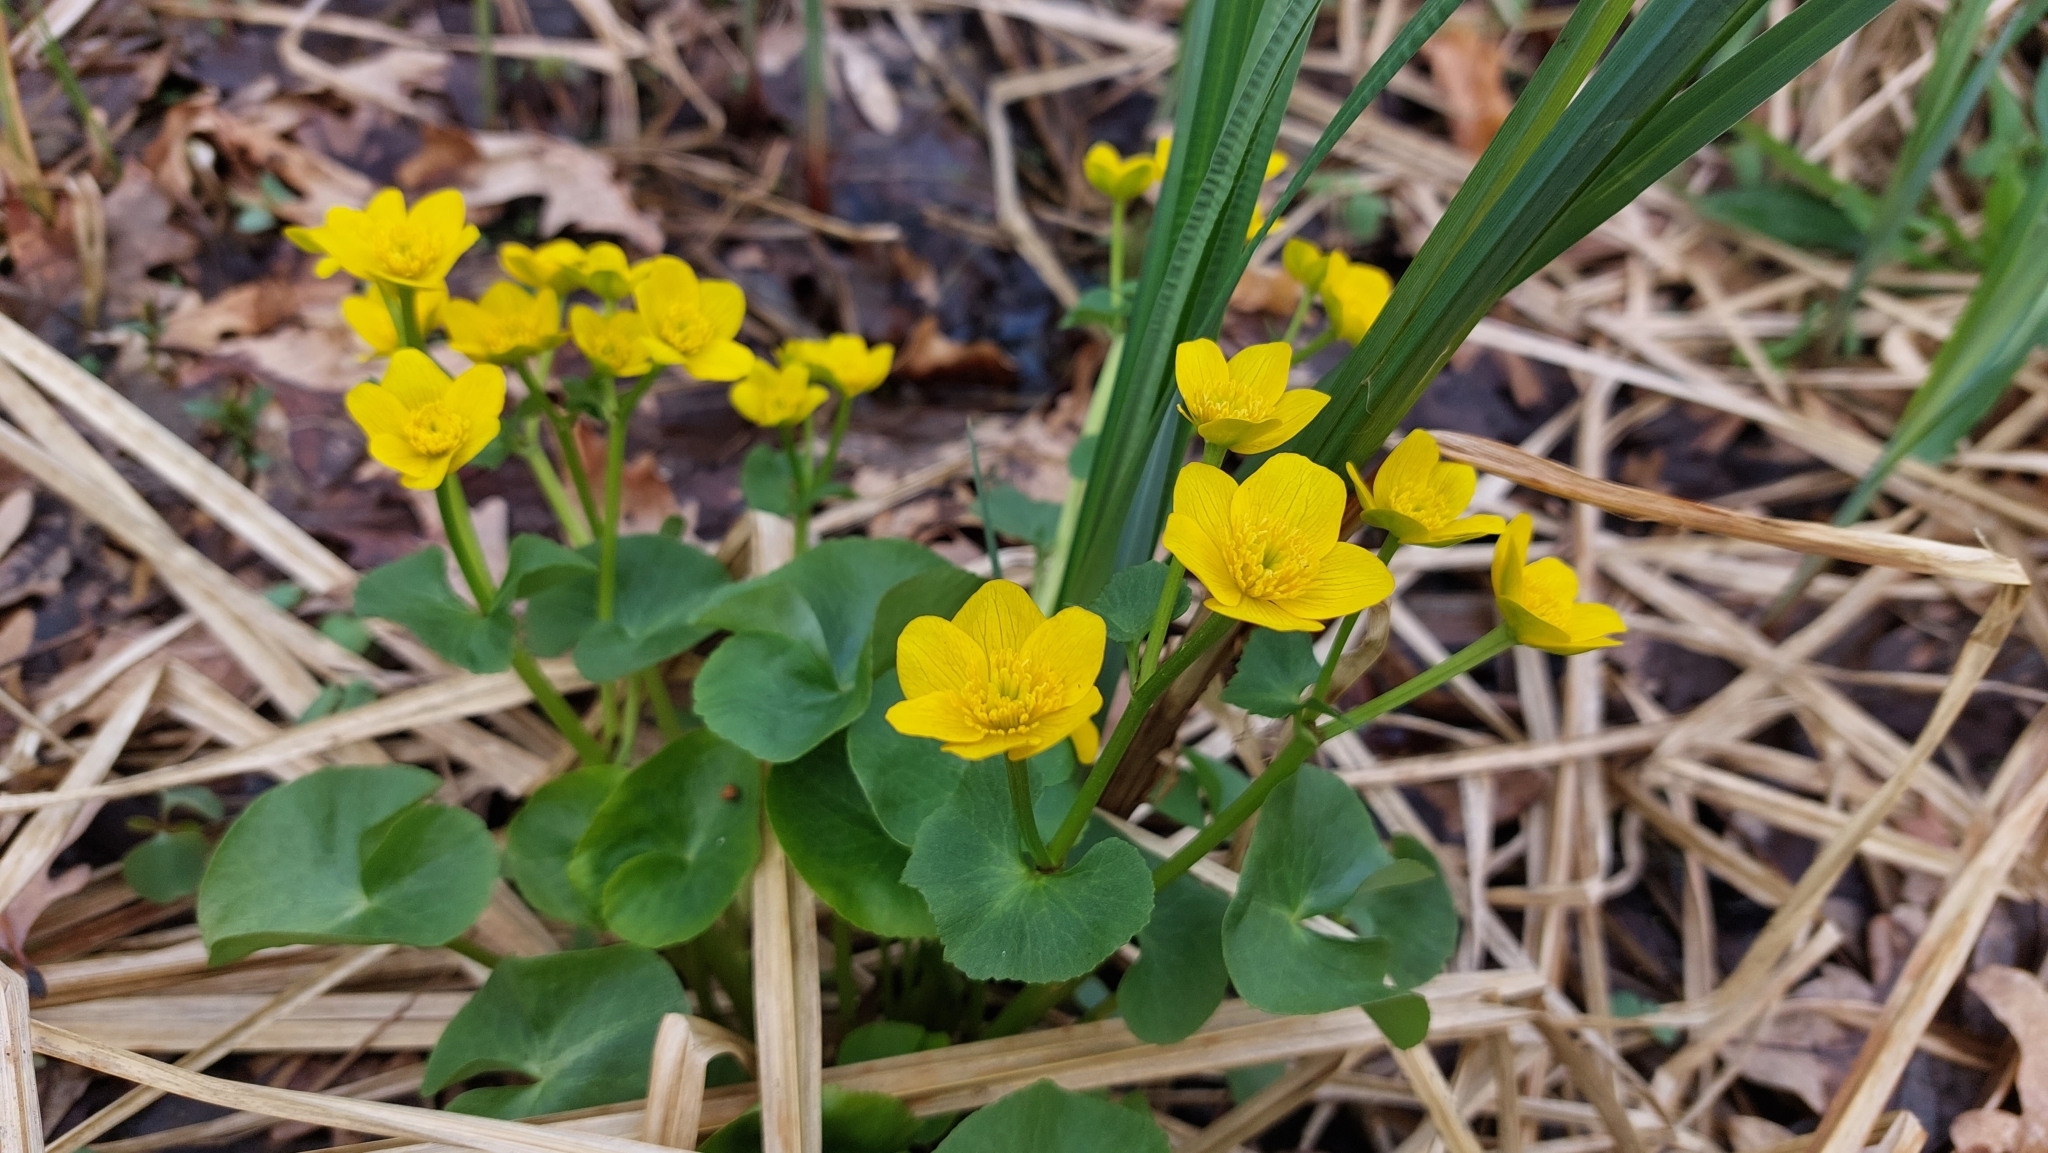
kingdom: Plantae
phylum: Tracheophyta
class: Magnoliopsida
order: Ranunculales
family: Ranunculaceae
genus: Caltha
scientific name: Caltha palustris
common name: Marsh marigold
